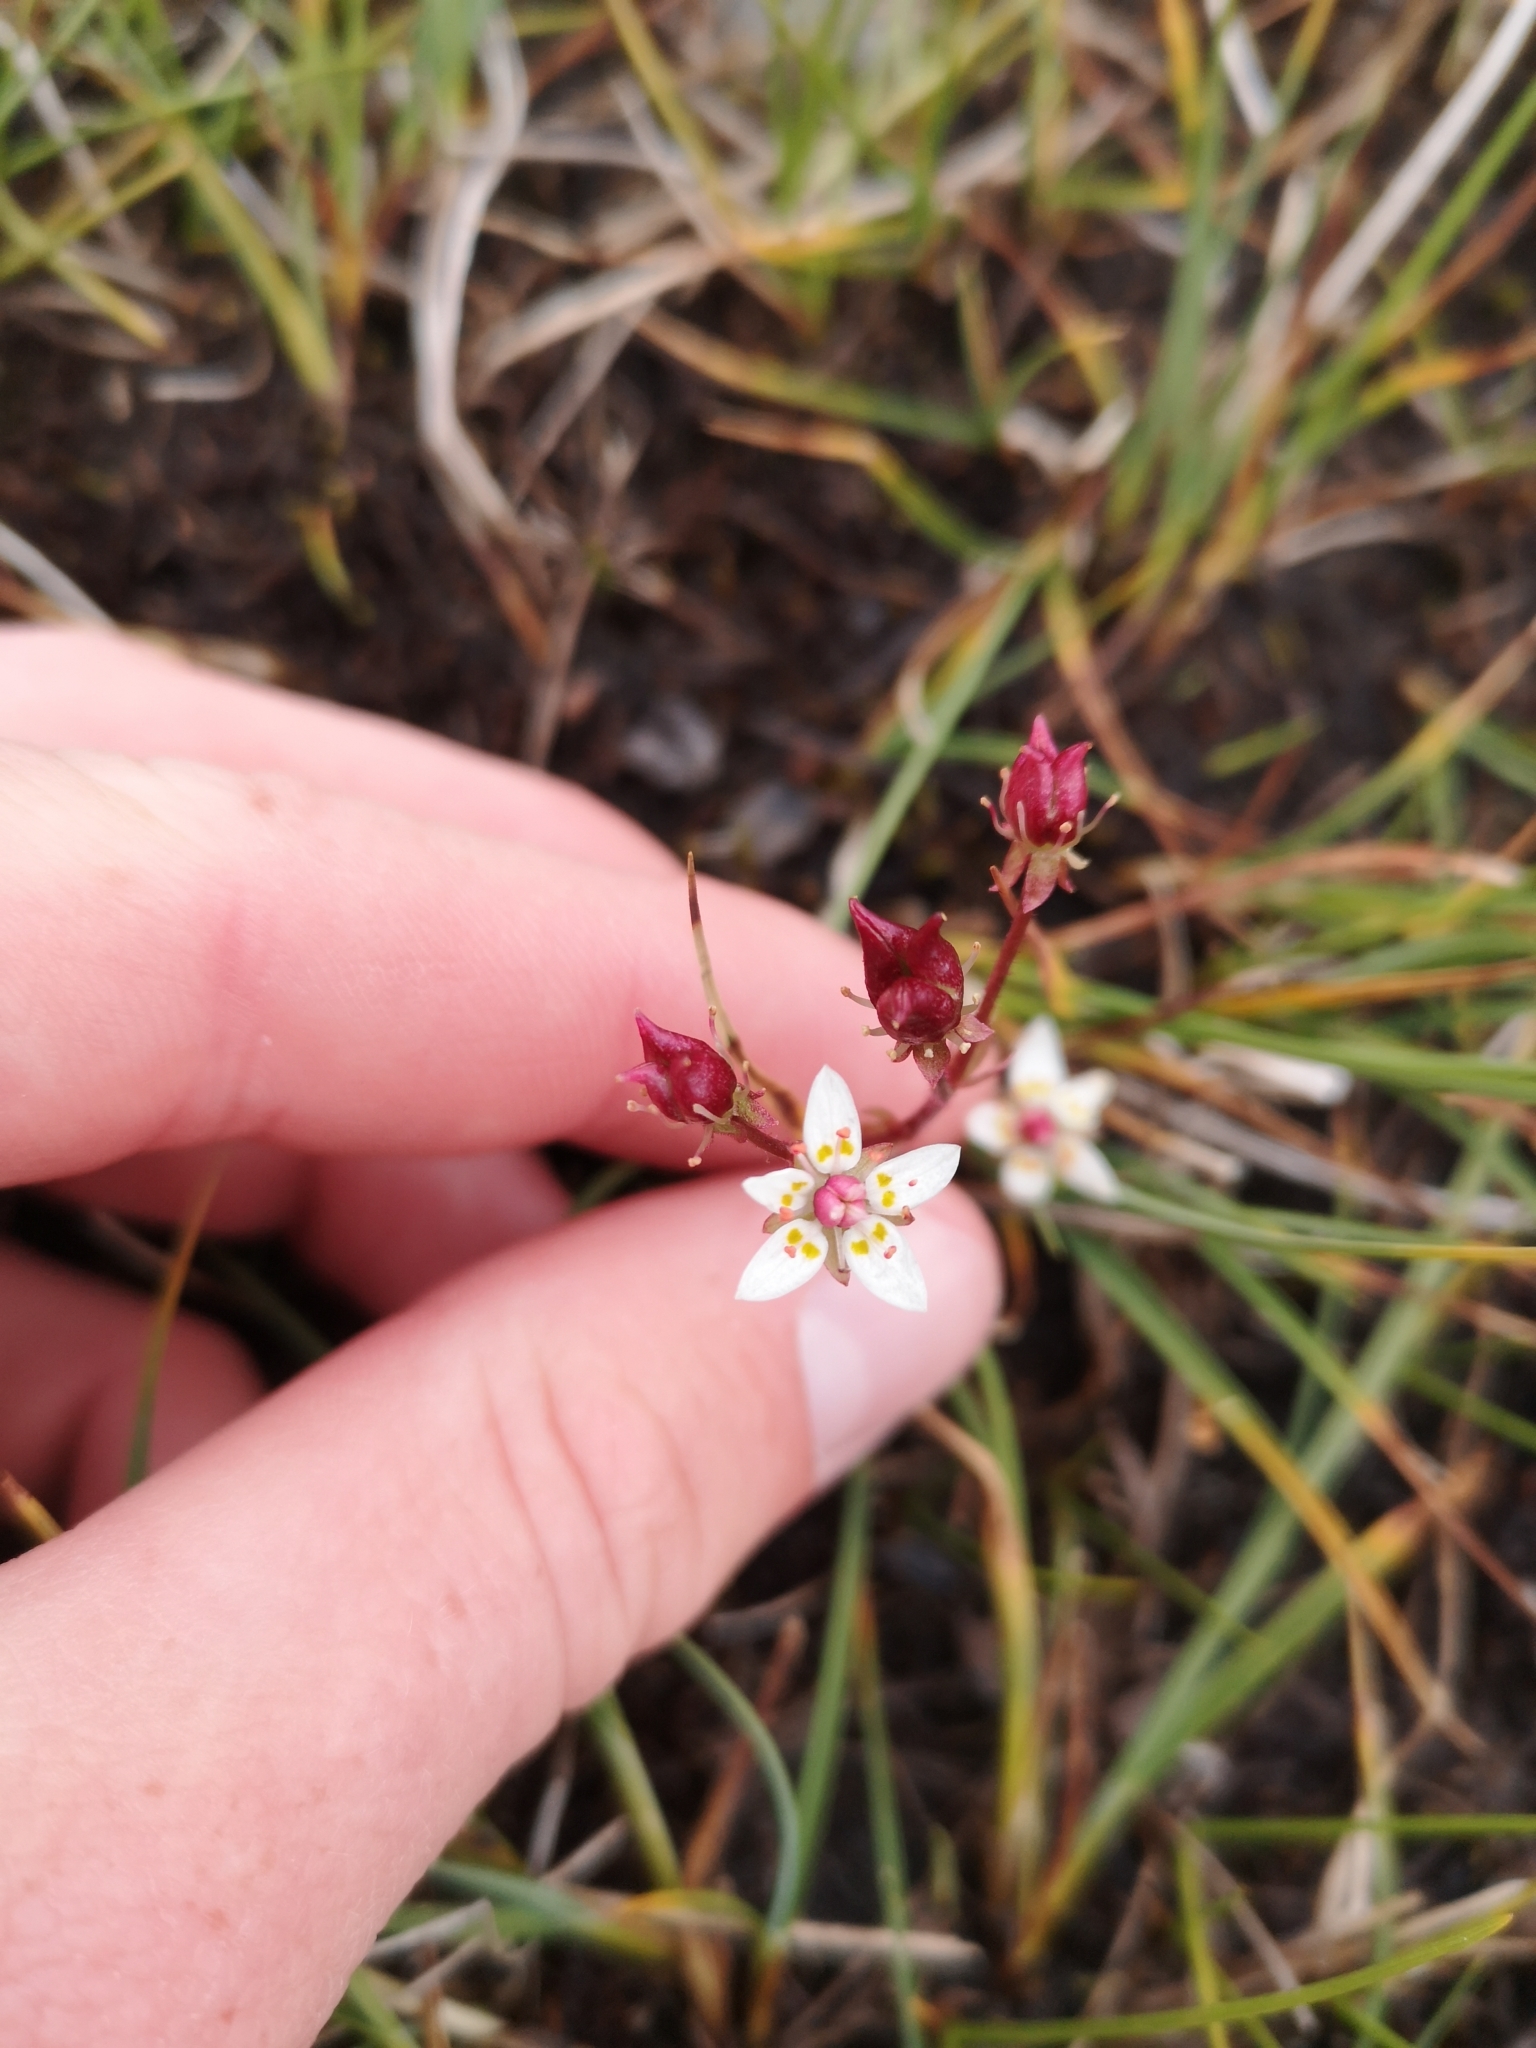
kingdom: Plantae
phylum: Tracheophyta
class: Magnoliopsida
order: Saxifragales
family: Saxifragaceae
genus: Micranthes
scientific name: Micranthes stellaris
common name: Starry saxifrage
